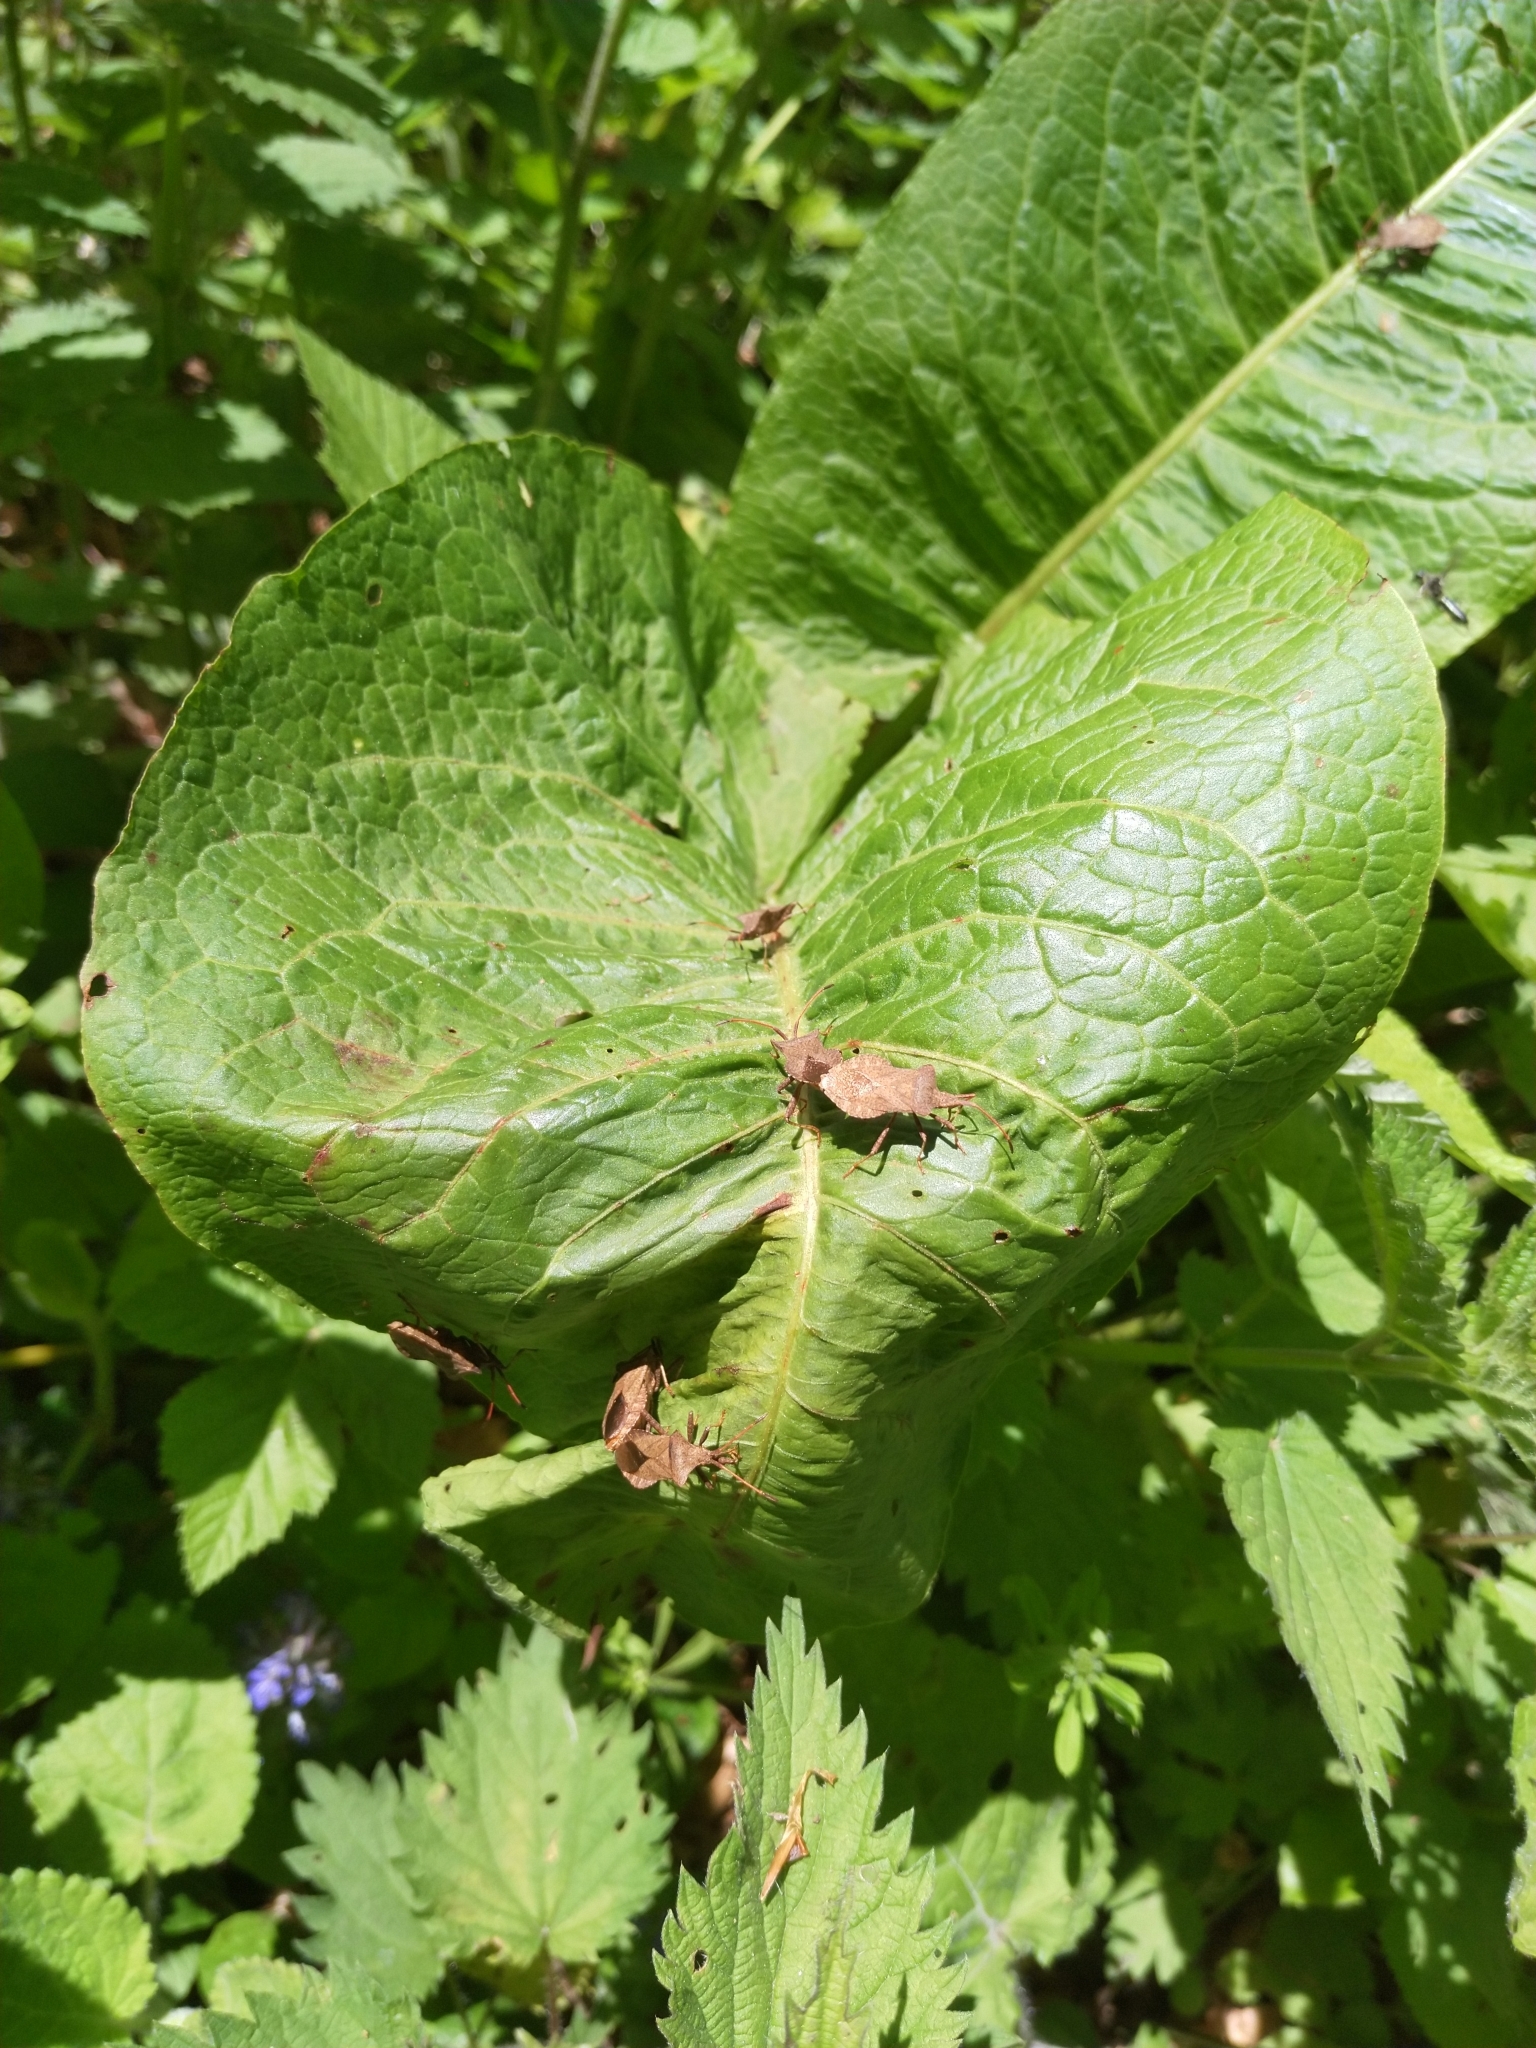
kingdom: Animalia
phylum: Arthropoda
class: Insecta
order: Hemiptera
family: Coreidae
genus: Coreus
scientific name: Coreus marginatus
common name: Dock bug
